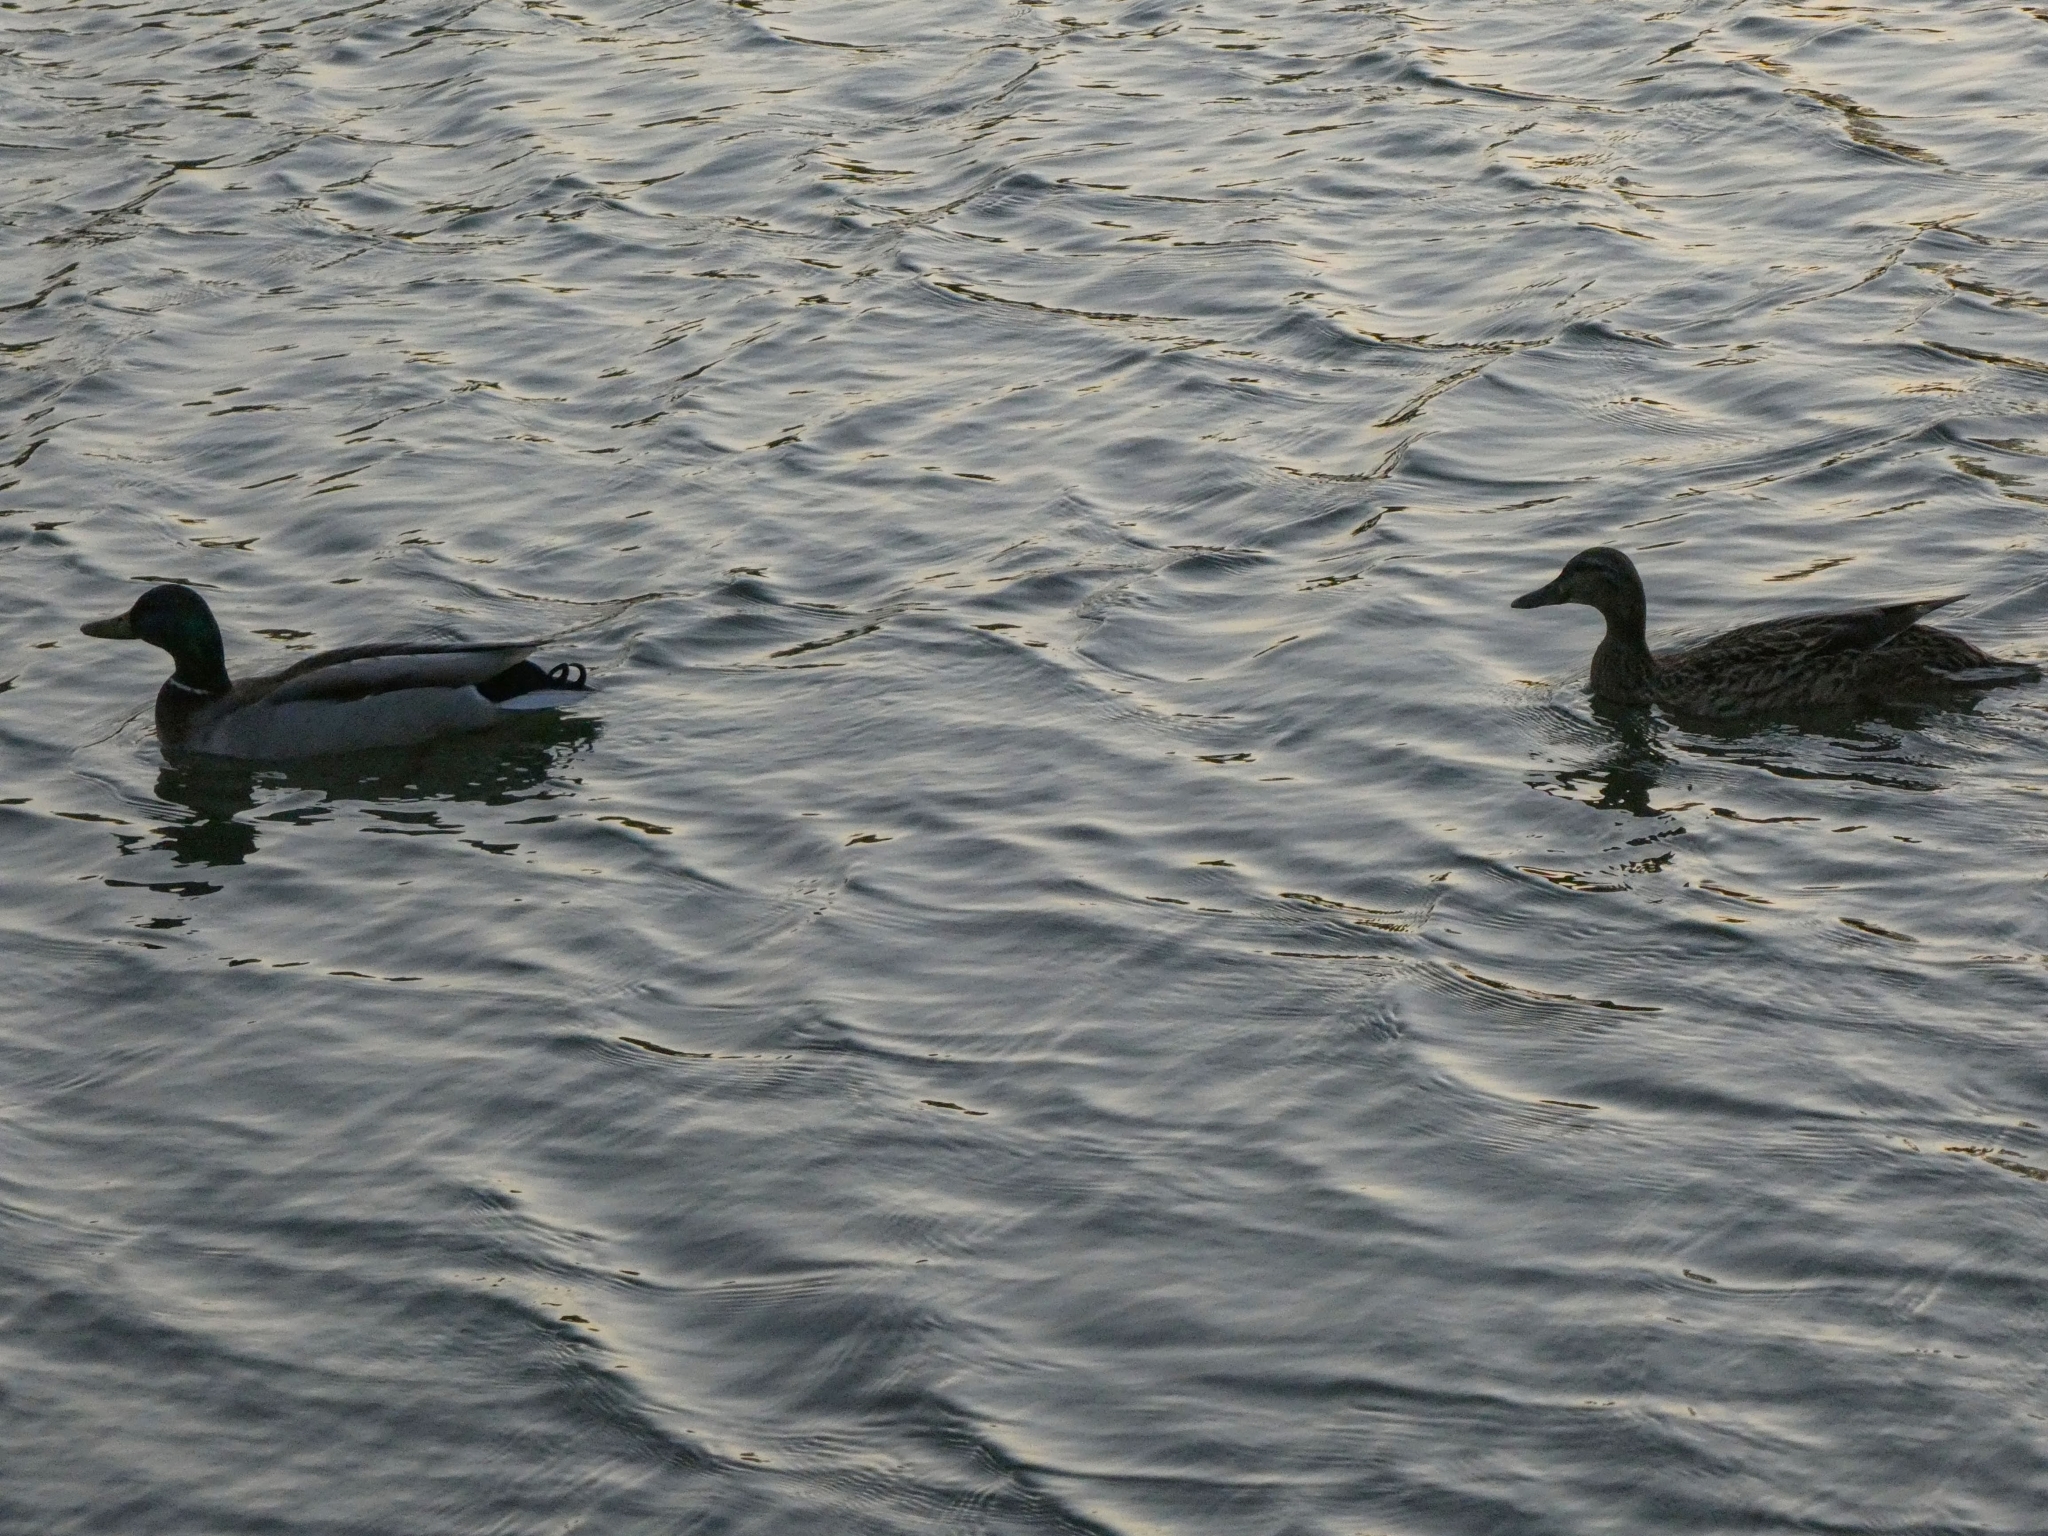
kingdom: Animalia
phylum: Chordata
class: Aves
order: Anseriformes
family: Anatidae
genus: Anas
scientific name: Anas platyrhynchos
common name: Mallard
